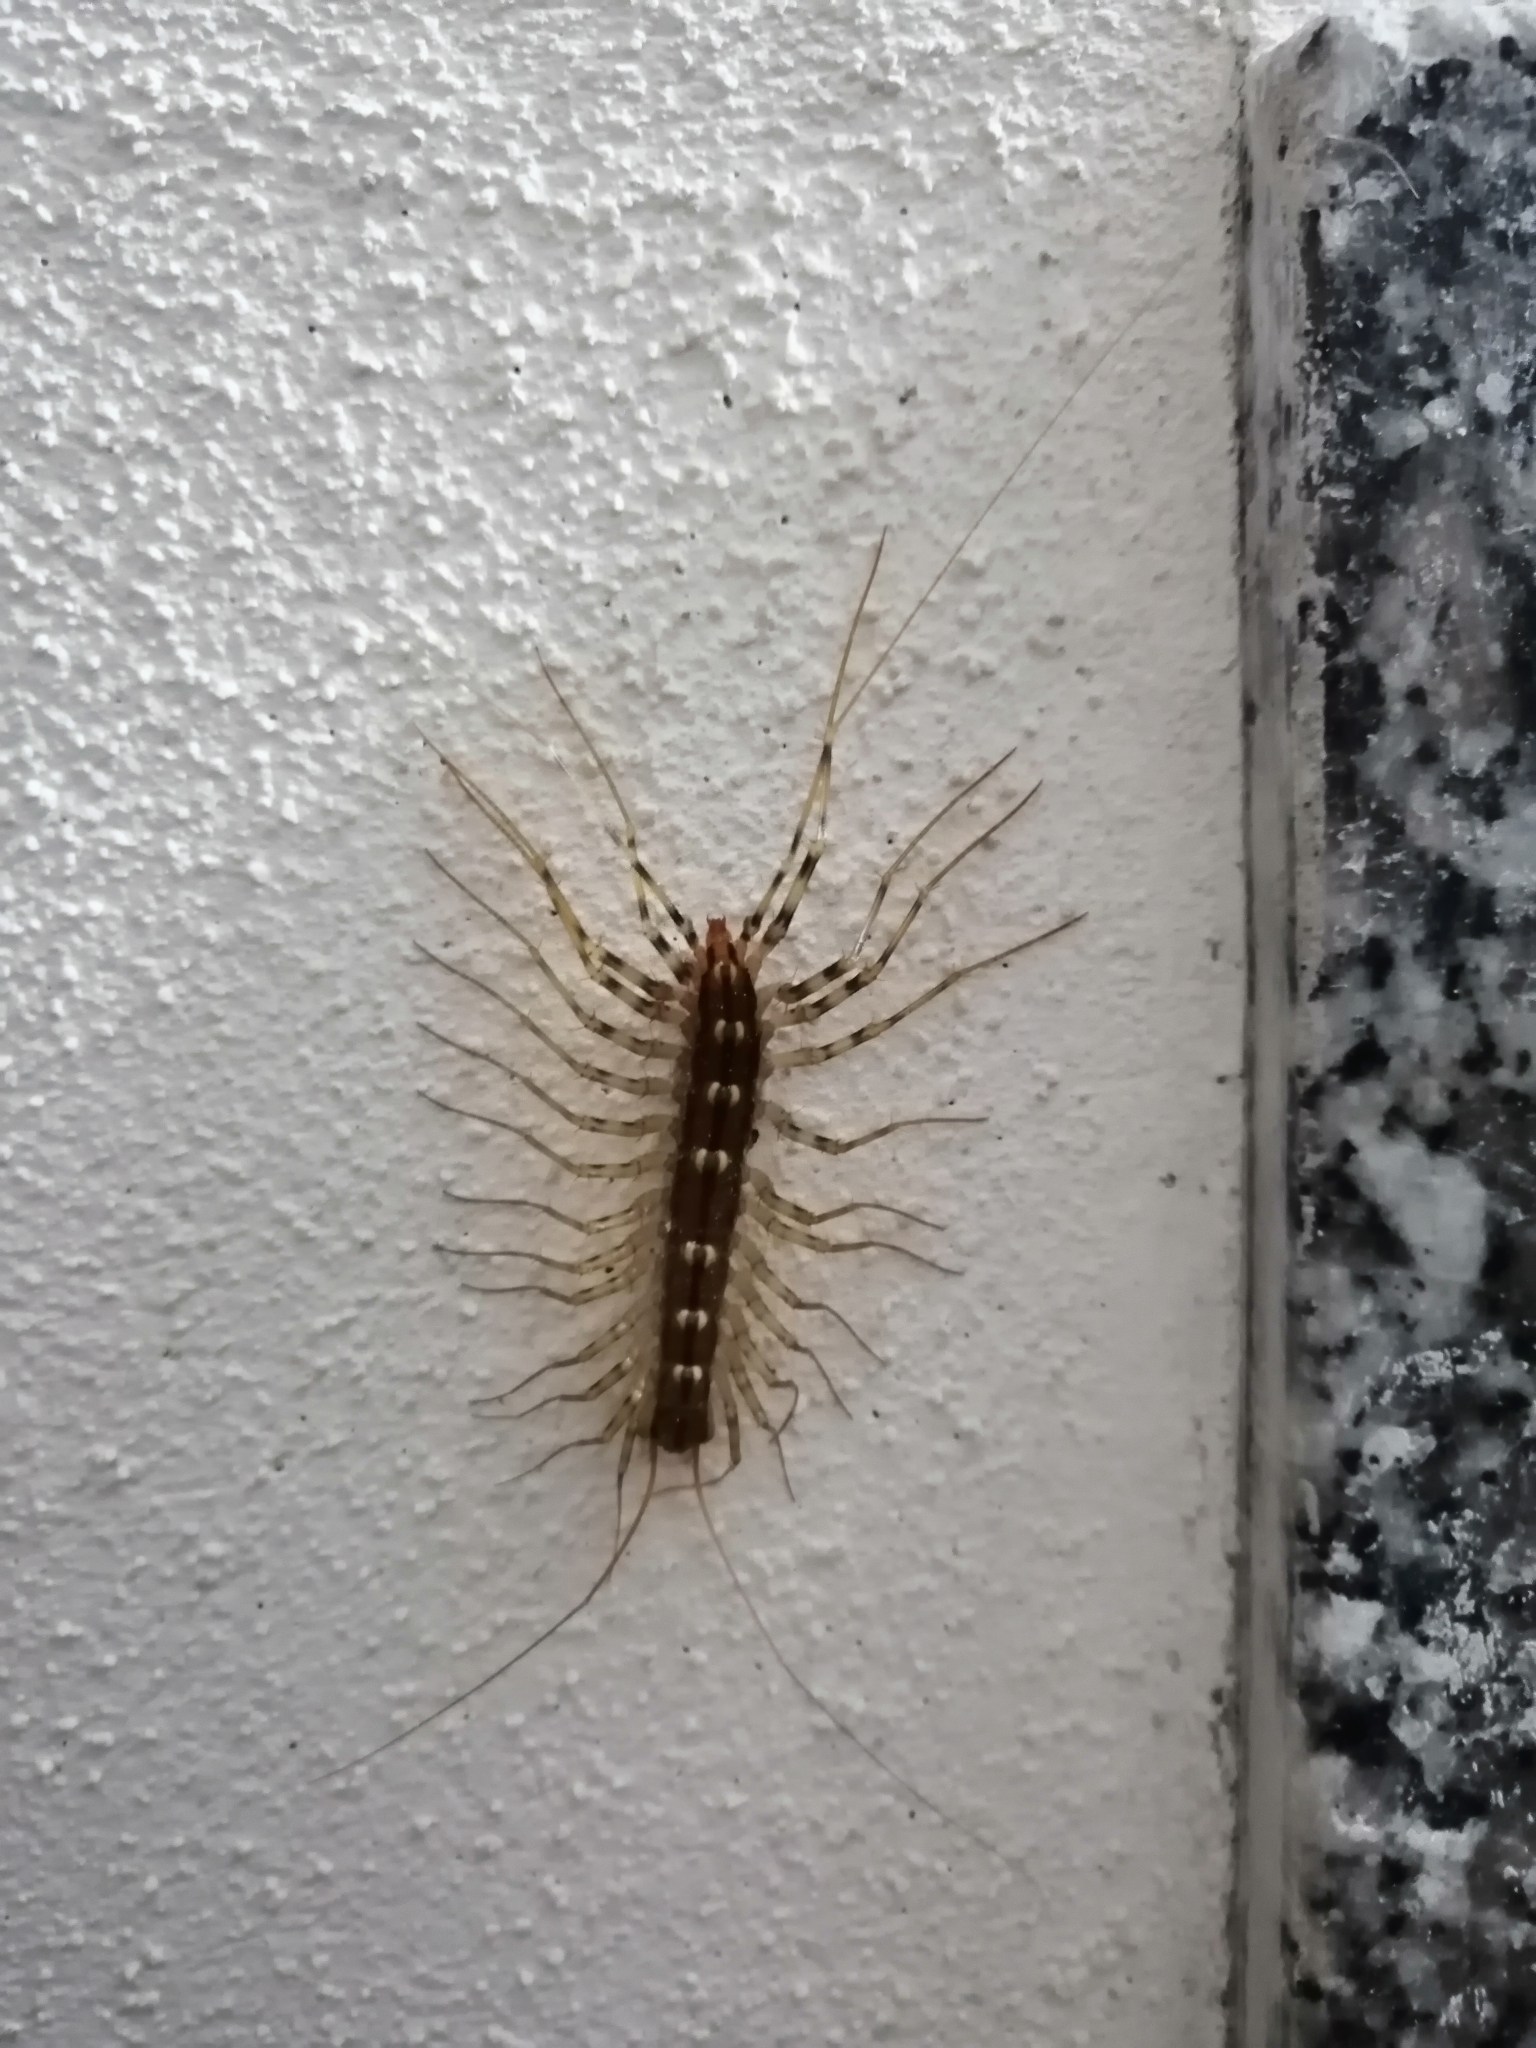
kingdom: Animalia
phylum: Arthropoda
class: Chilopoda
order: Scutigeromorpha
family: Scutigeridae
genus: Scutigera
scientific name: Scutigera coleoptrata
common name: House centipede
